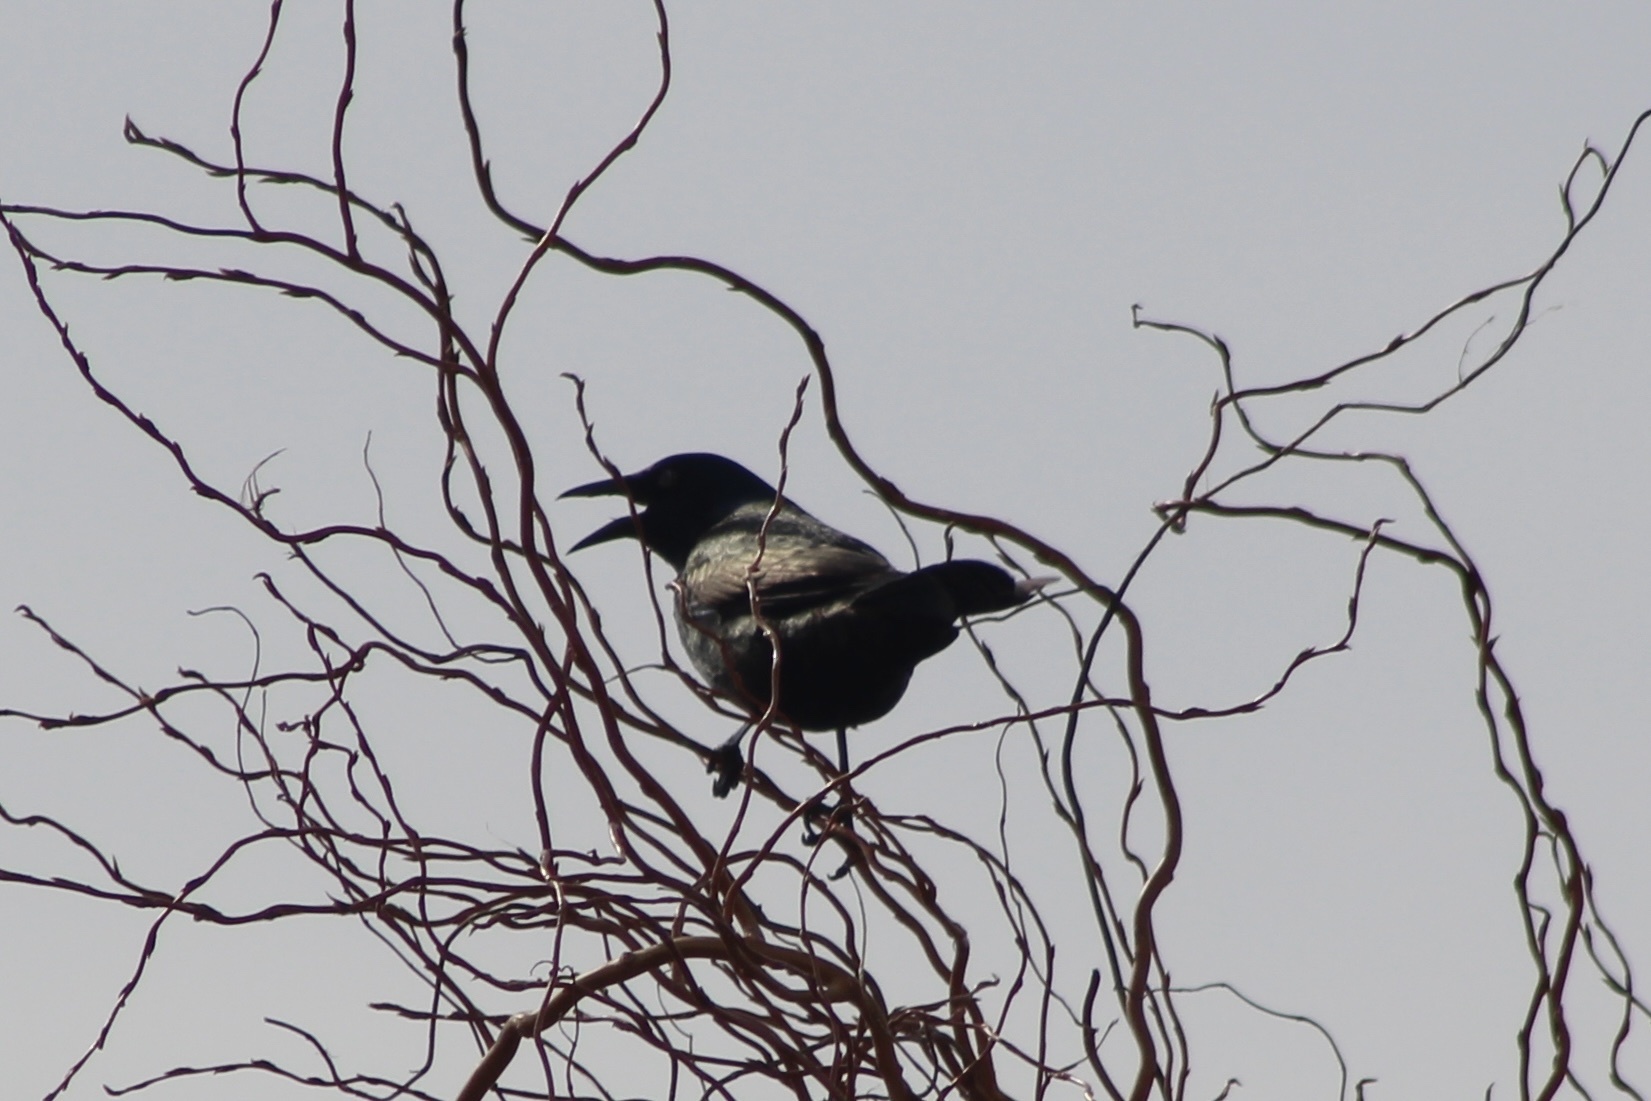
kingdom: Animalia
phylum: Chordata
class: Aves
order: Passeriformes
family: Icteridae
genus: Quiscalus
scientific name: Quiscalus quiscula
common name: Common grackle
